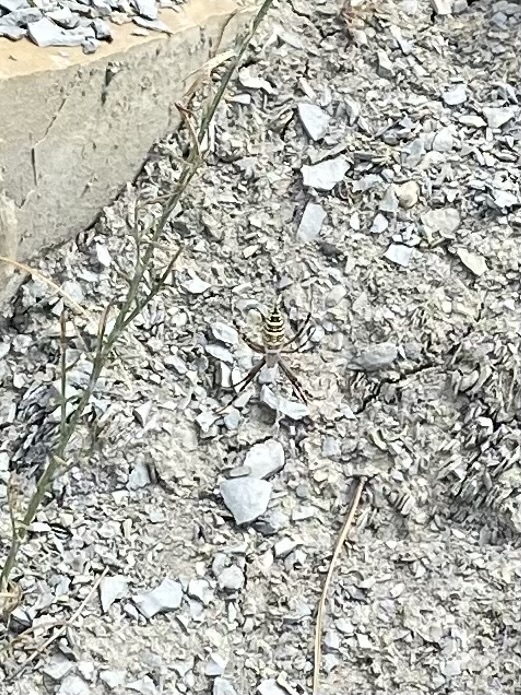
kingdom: Animalia
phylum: Arthropoda
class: Arachnida
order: Araneae
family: Araneidae
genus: Argiope
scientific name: Argiope bruennichi
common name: Wasp spider
